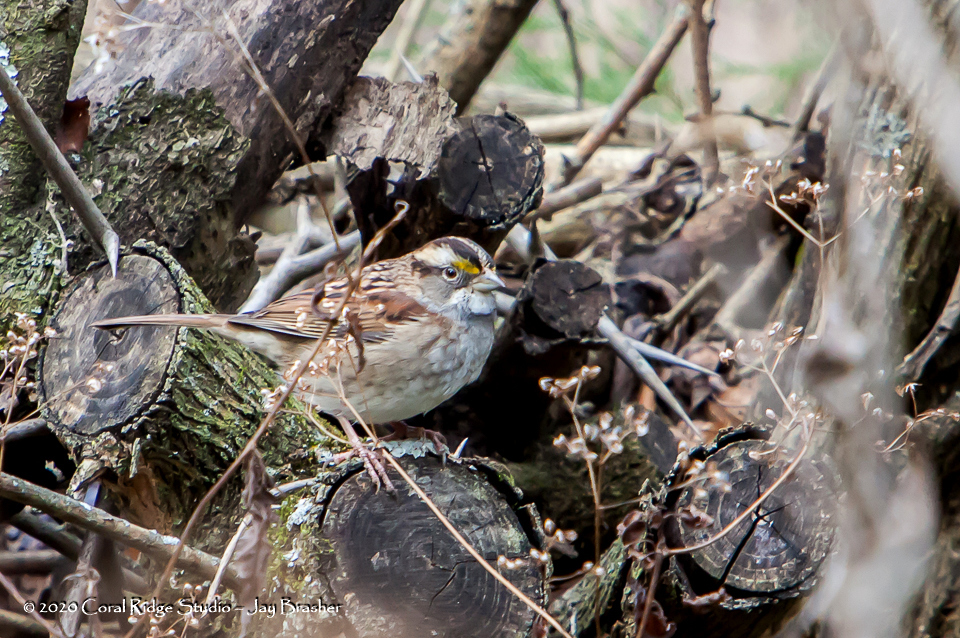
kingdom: Animalia
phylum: Chordata
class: Aves
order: Passeriformes
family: Passerellidae
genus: Zonotrichia
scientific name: Zonotrichia albicollis
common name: White-throated sparrow
